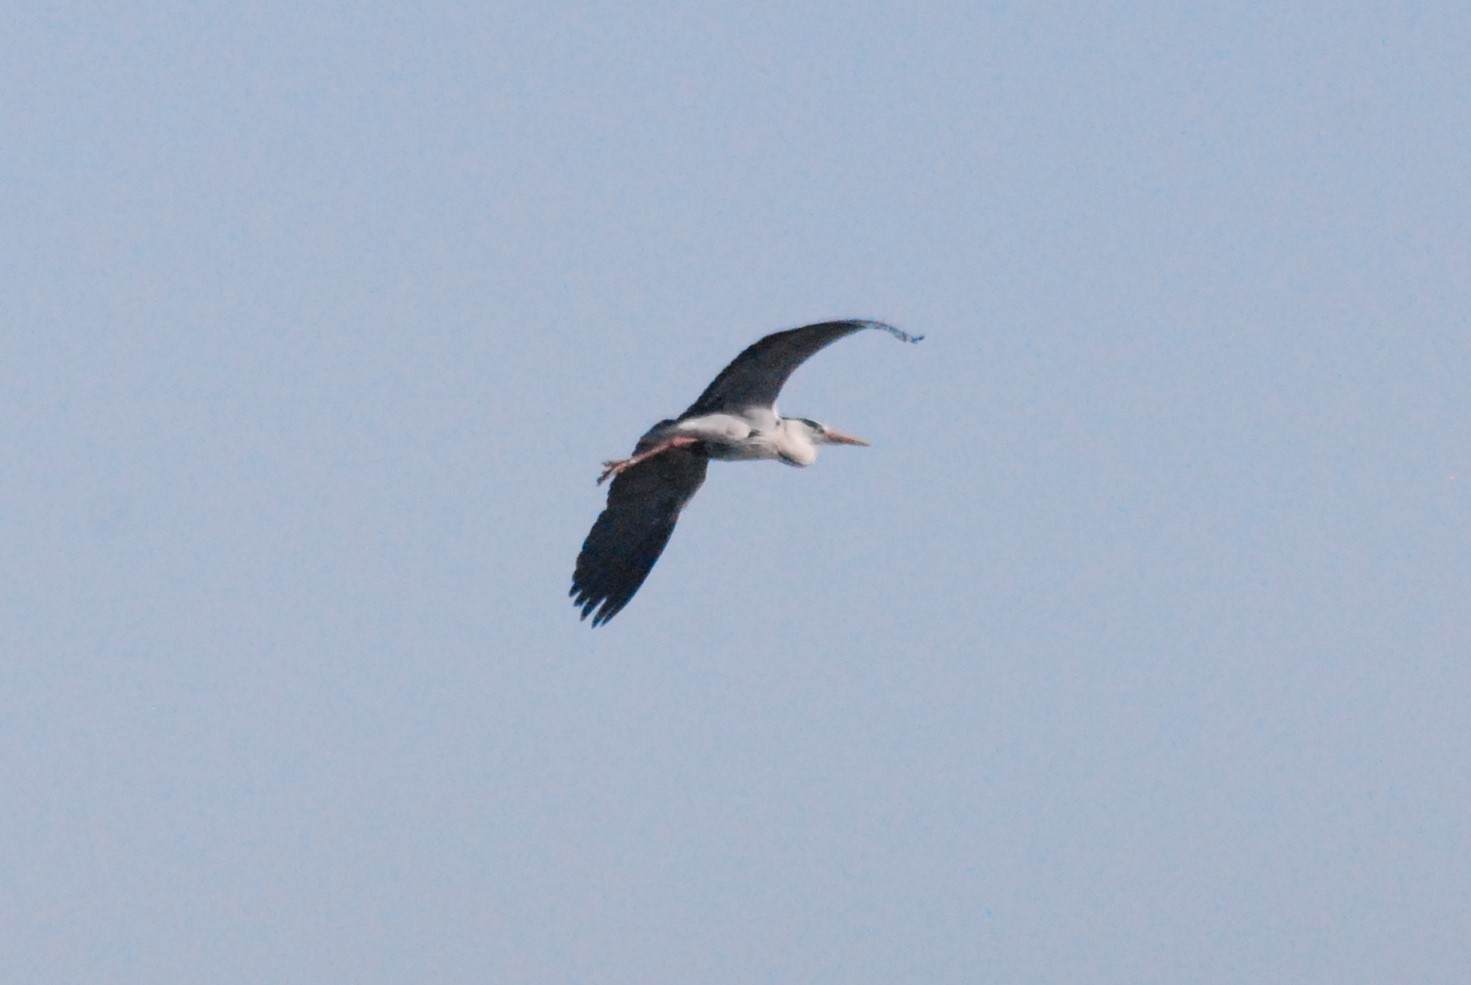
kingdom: Animalia
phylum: Chordata
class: Aves
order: Pelecaniformes
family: Ardeidae
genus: Ardea
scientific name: Ardea cinerea
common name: Grey heron
